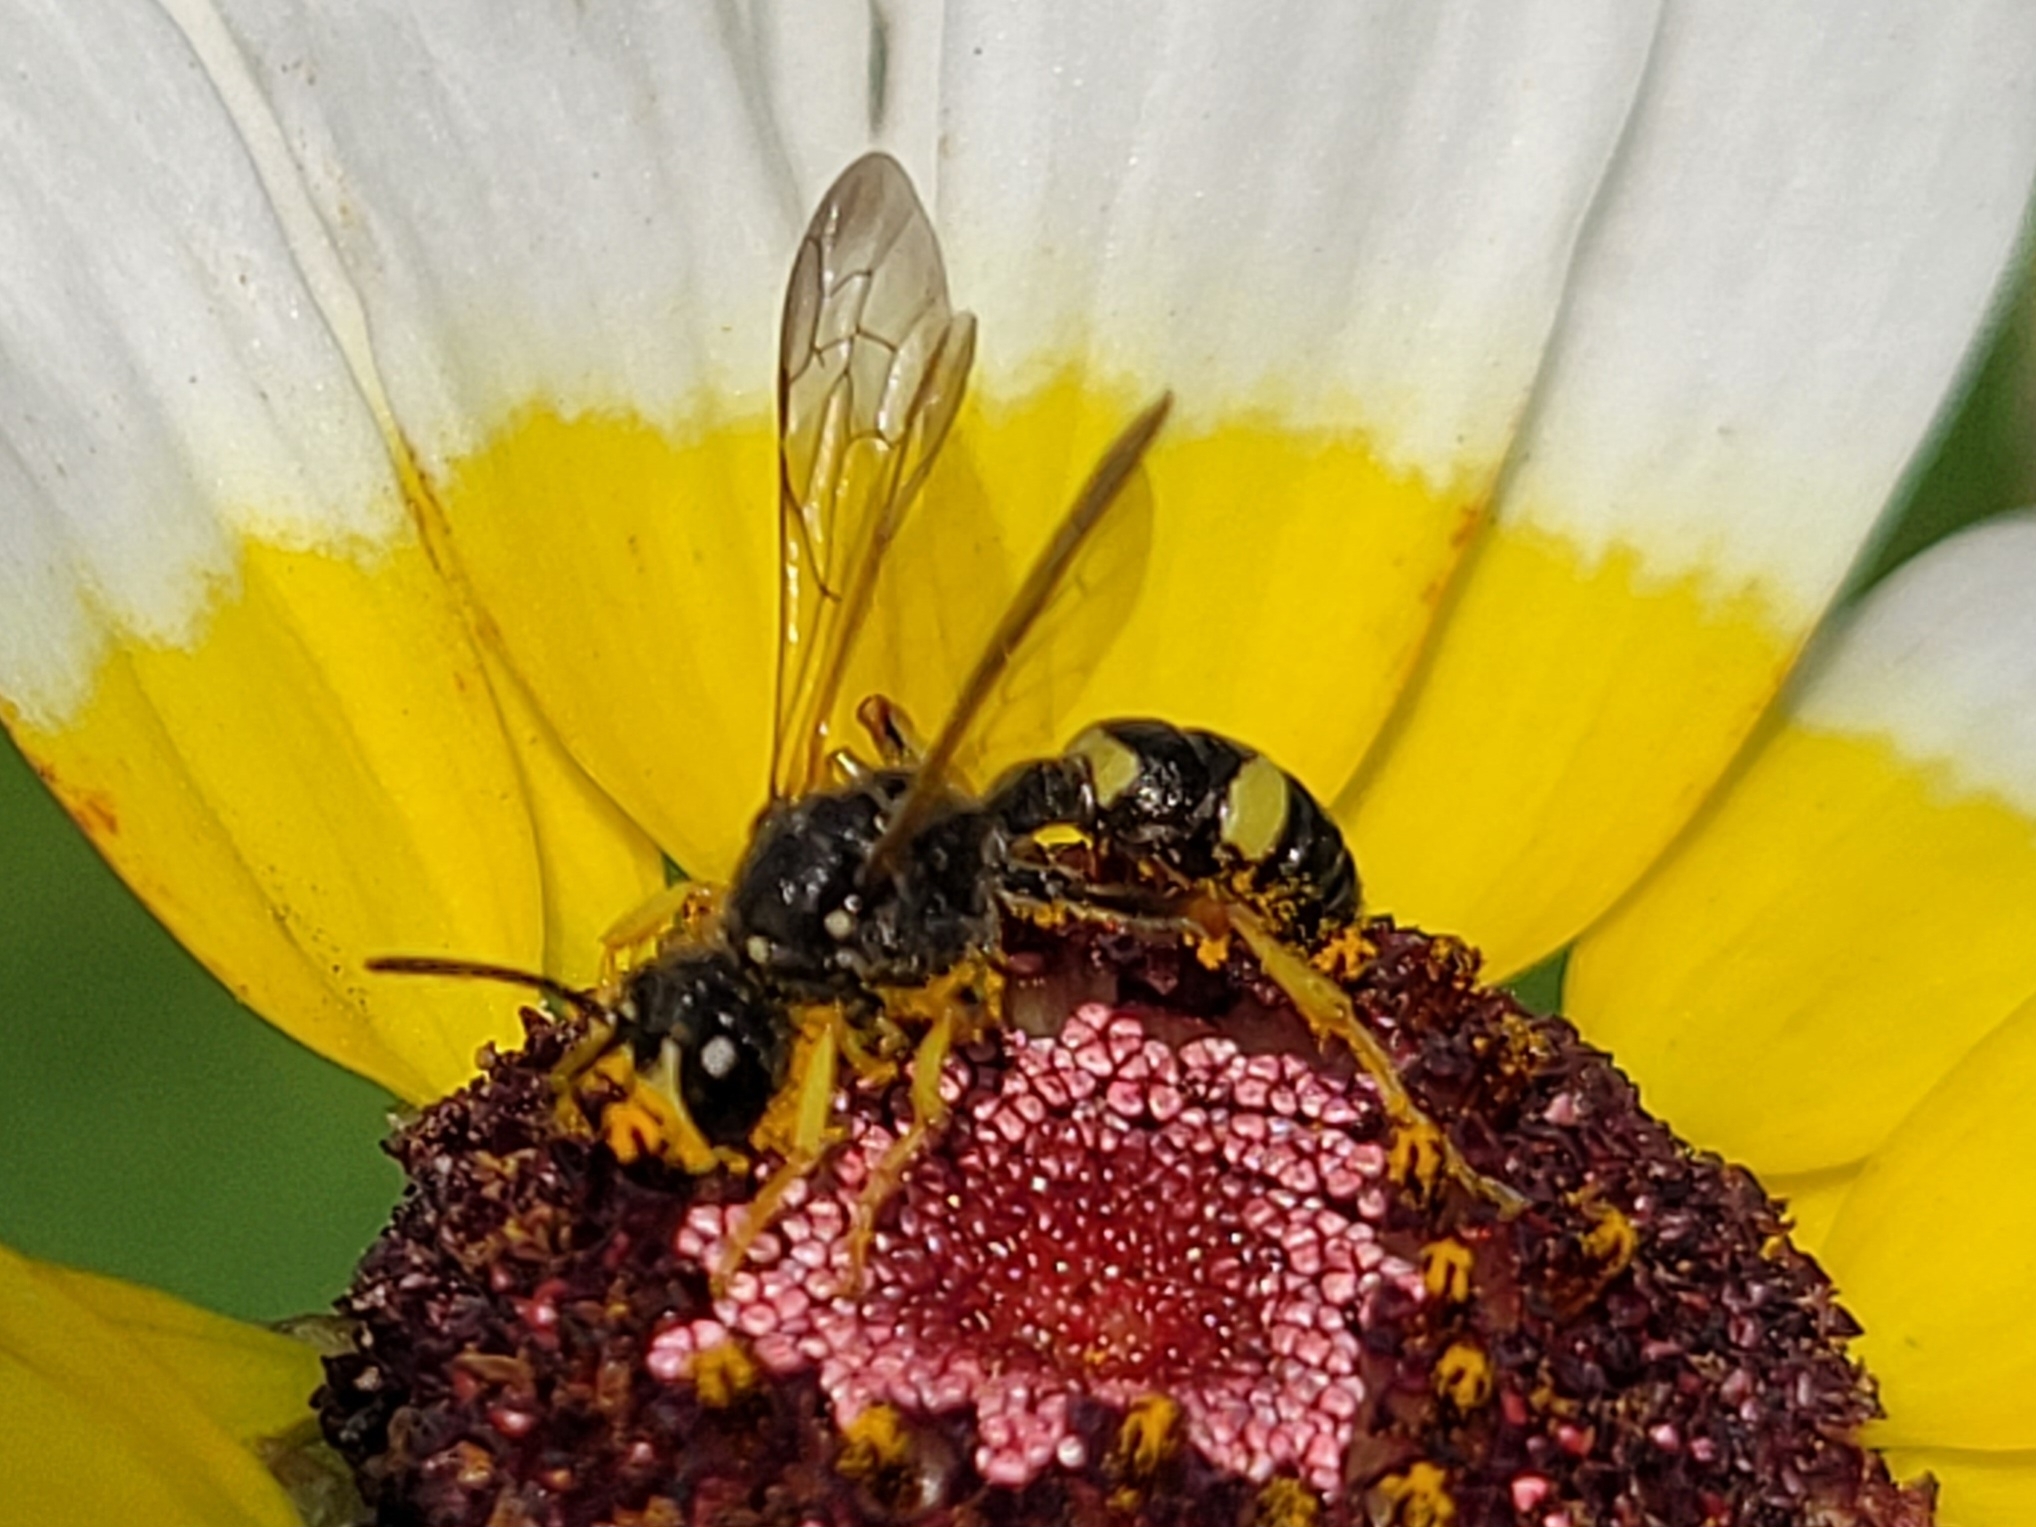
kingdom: Animalia
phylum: Arthropoda
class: Insecta
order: Hymenoptera
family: Crabronidae
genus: Cerceris
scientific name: Cerceris rybyensis
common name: Ornate tailed digger wasp
